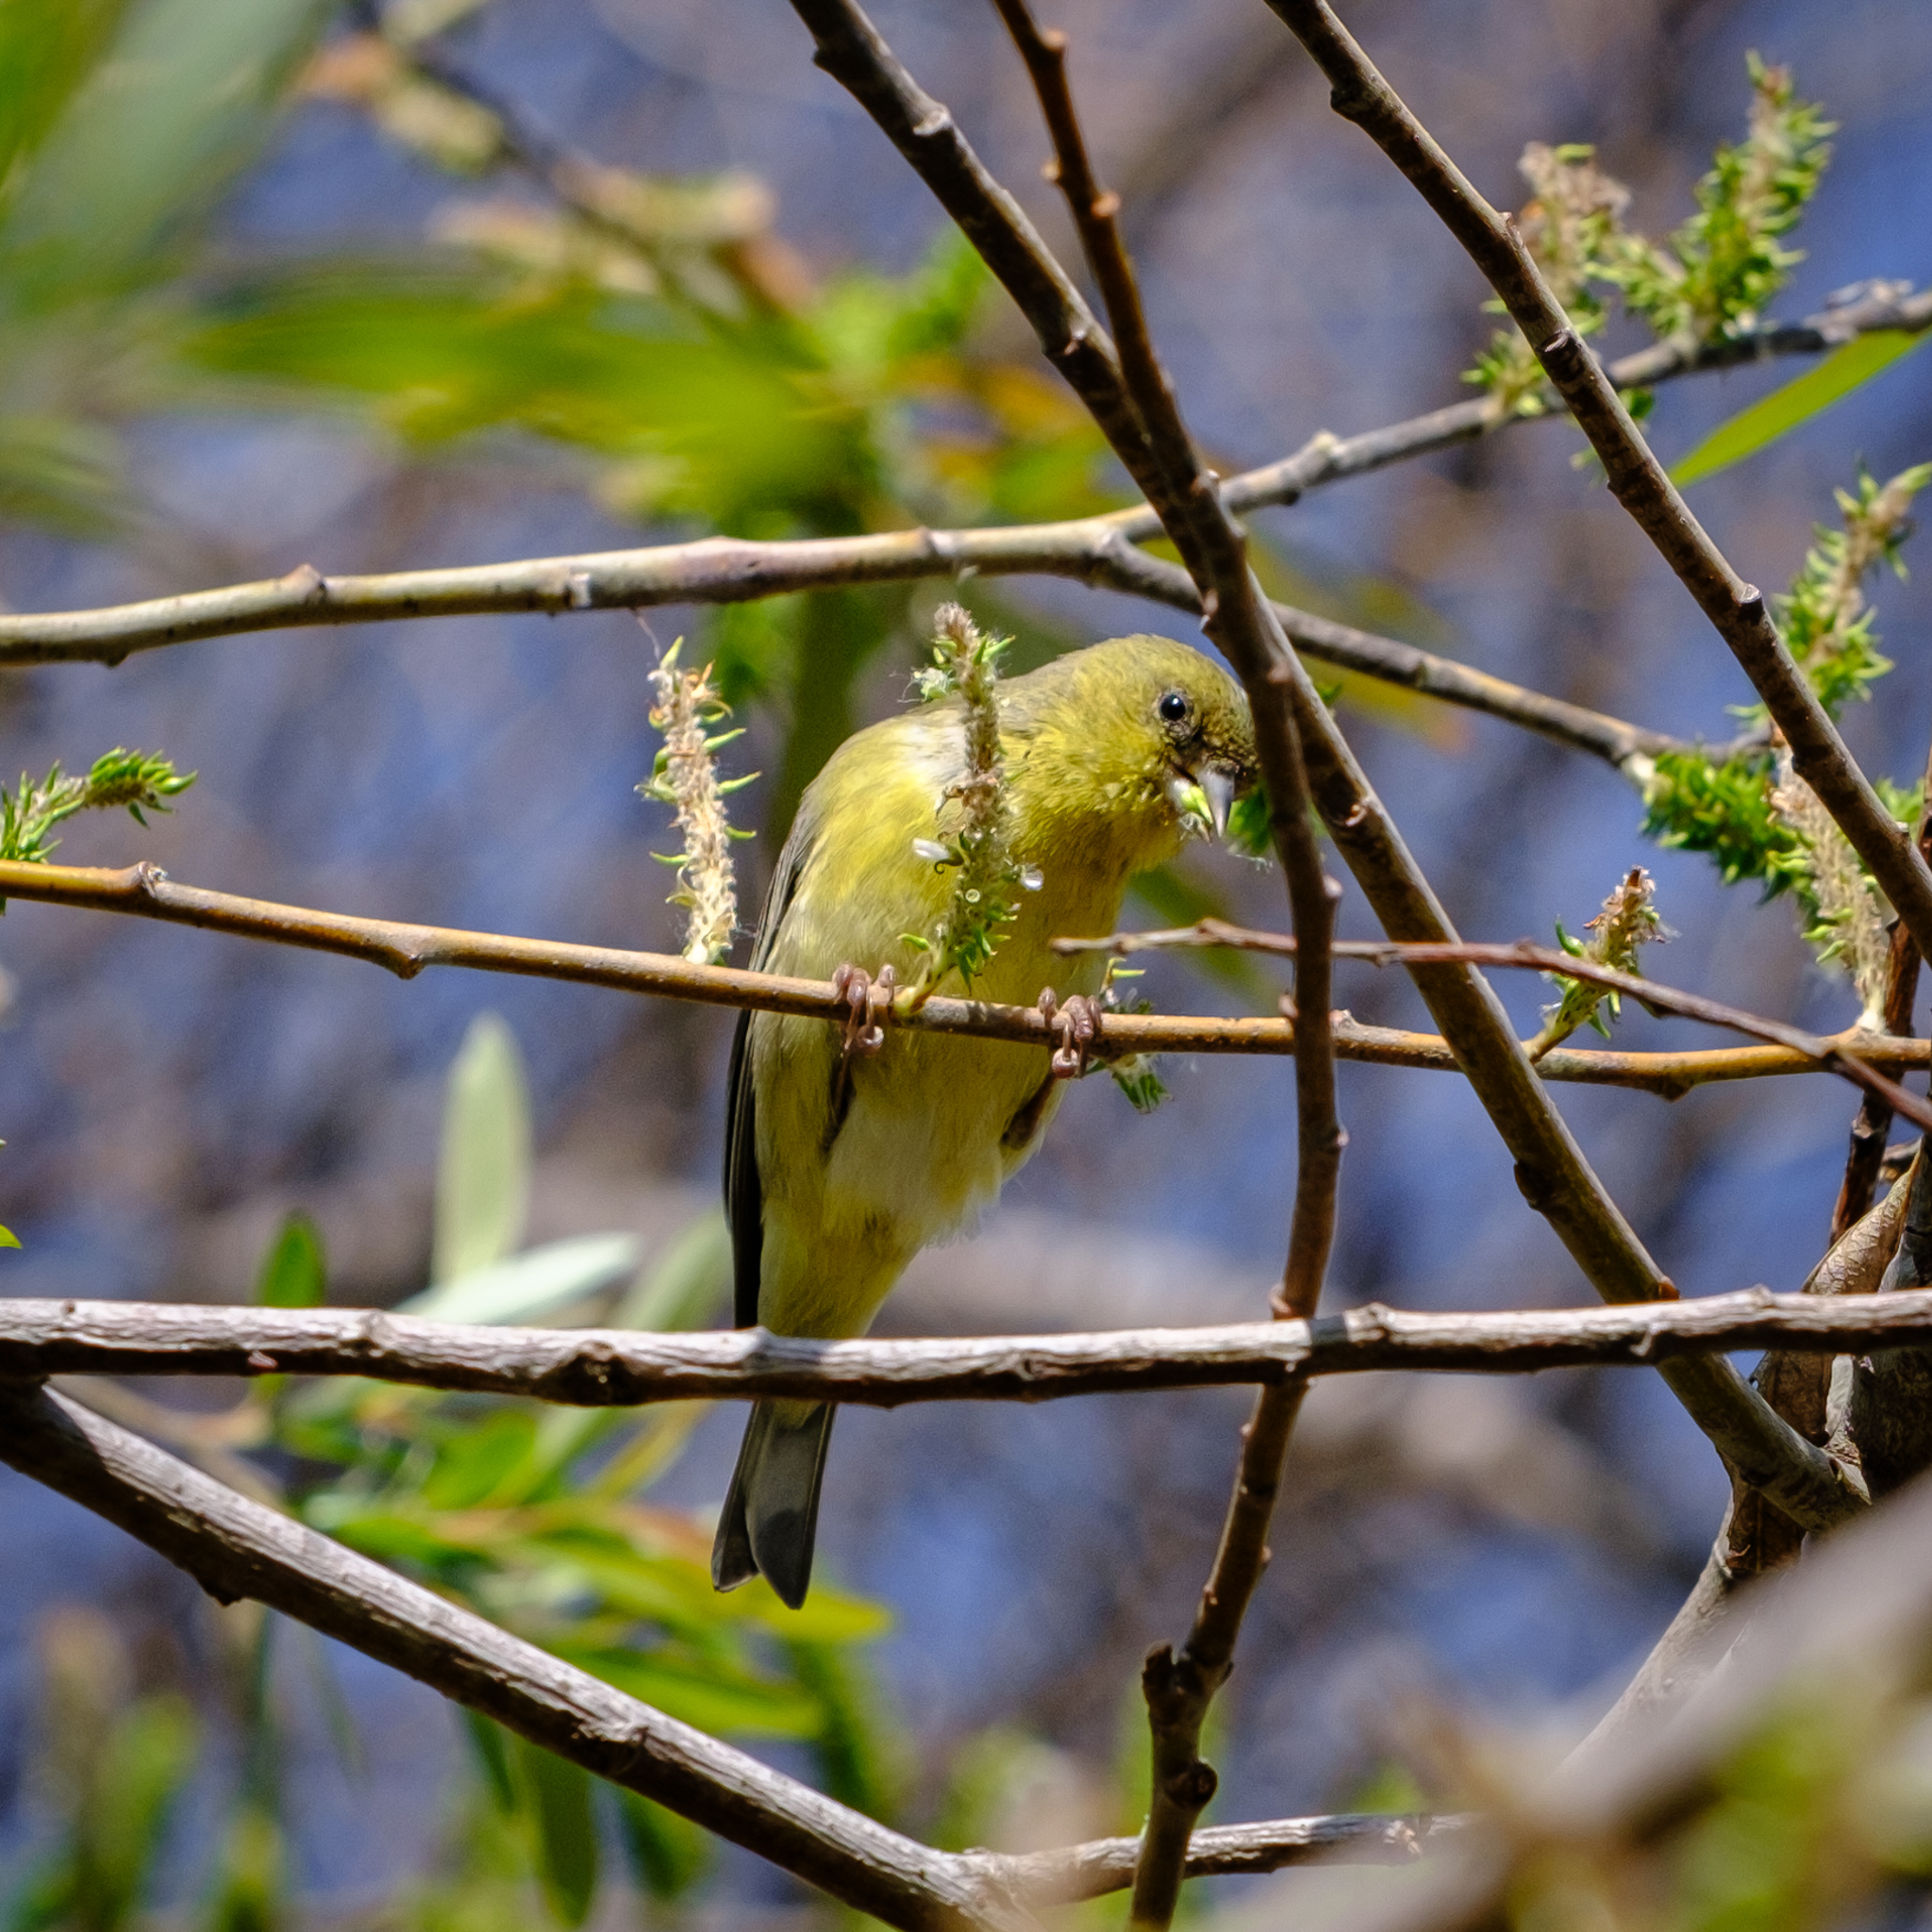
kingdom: Animalia
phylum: Chordata
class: Aves
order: Passeriformes
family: Fringillidae
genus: Spinus
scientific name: Spinus psaltria
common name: Lesser goldfinch
